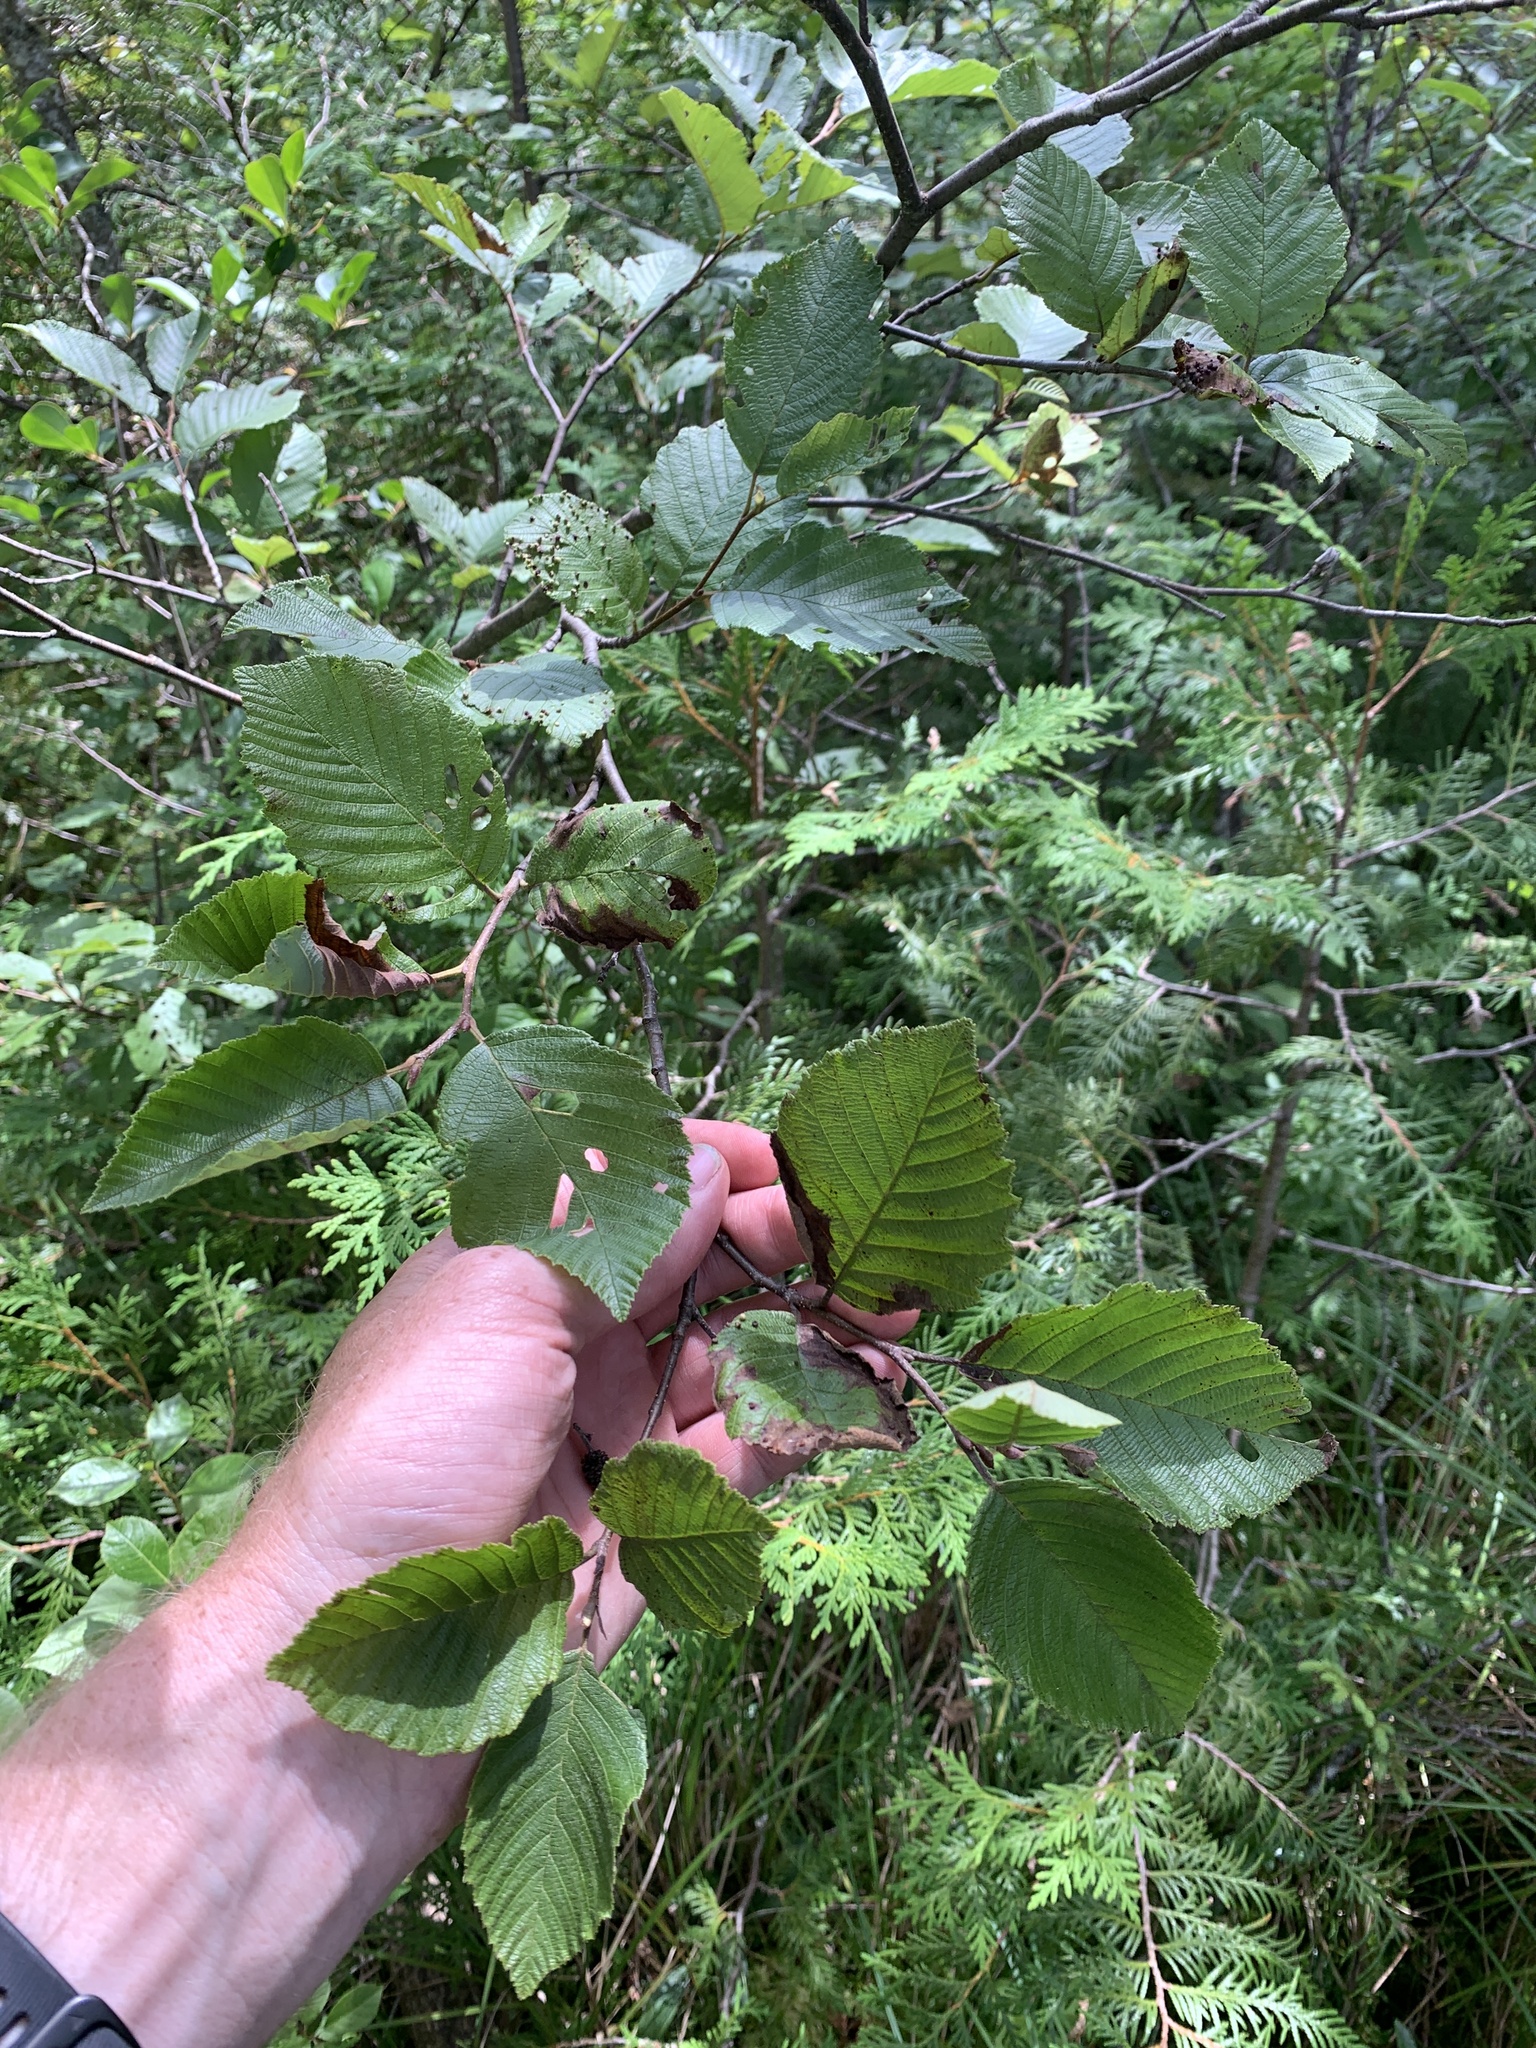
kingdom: Plantae
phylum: Tracheophyta
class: Magnoliopsida
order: Fagales
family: Betulaceae
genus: Alnus
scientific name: Alnus incana
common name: Grey alder
